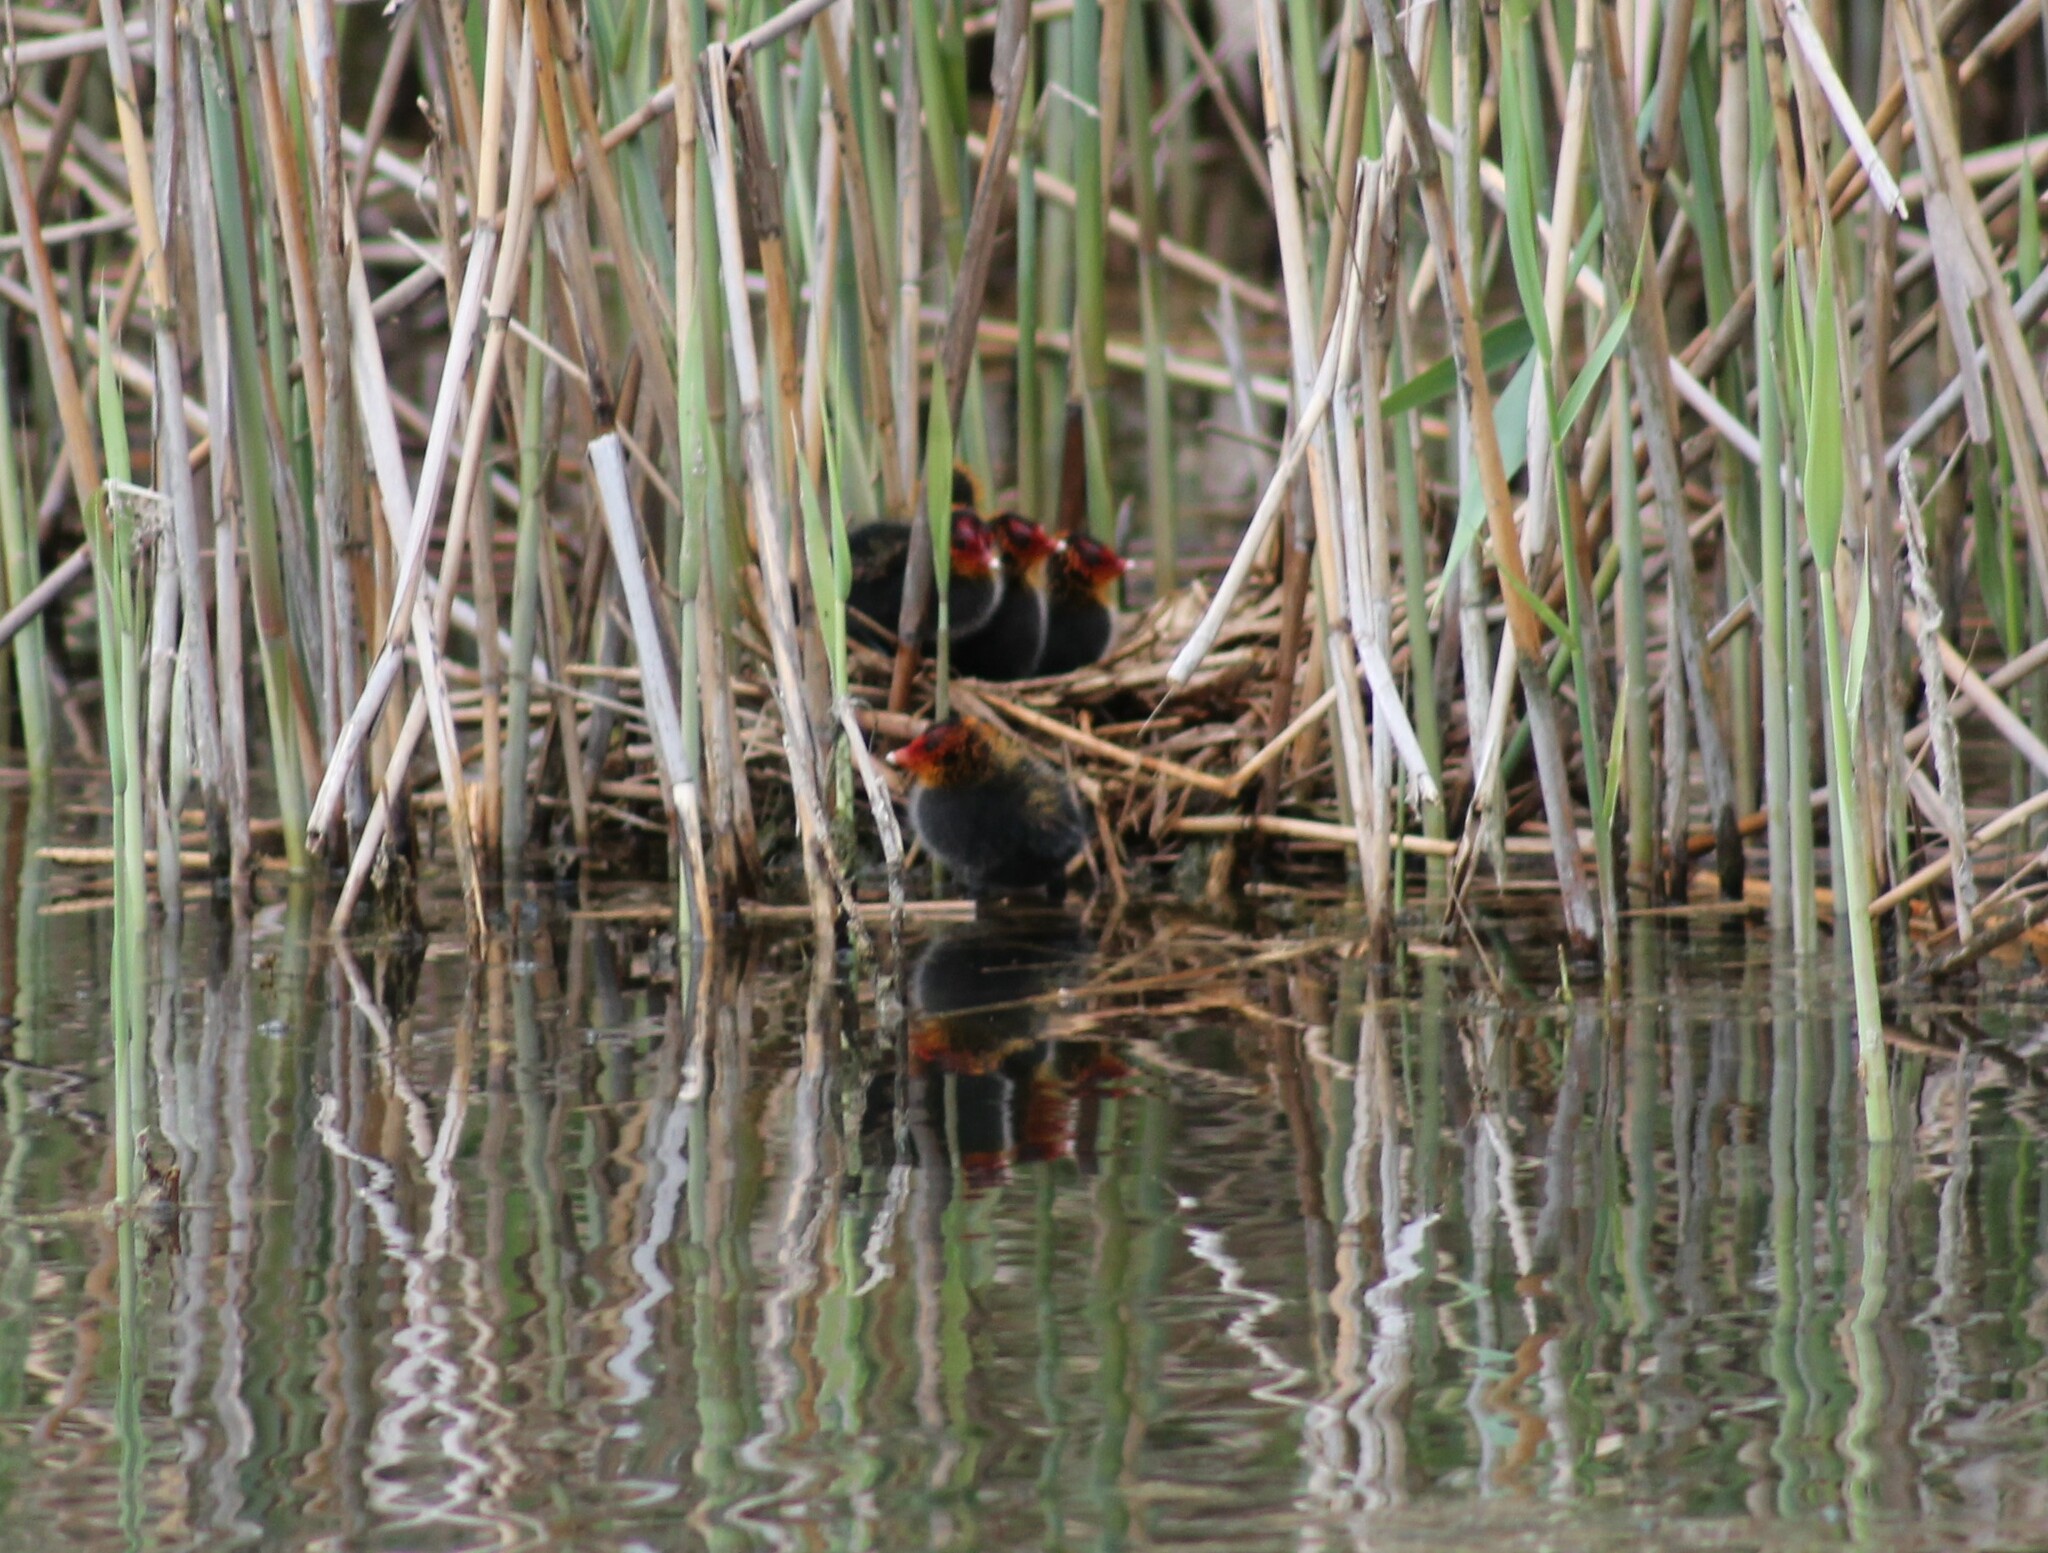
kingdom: Animalia
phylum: Chordata
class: Aves
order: Gruiformes
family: Rallidae
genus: Fulica
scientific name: Fulica atra
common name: Eurasian coot
